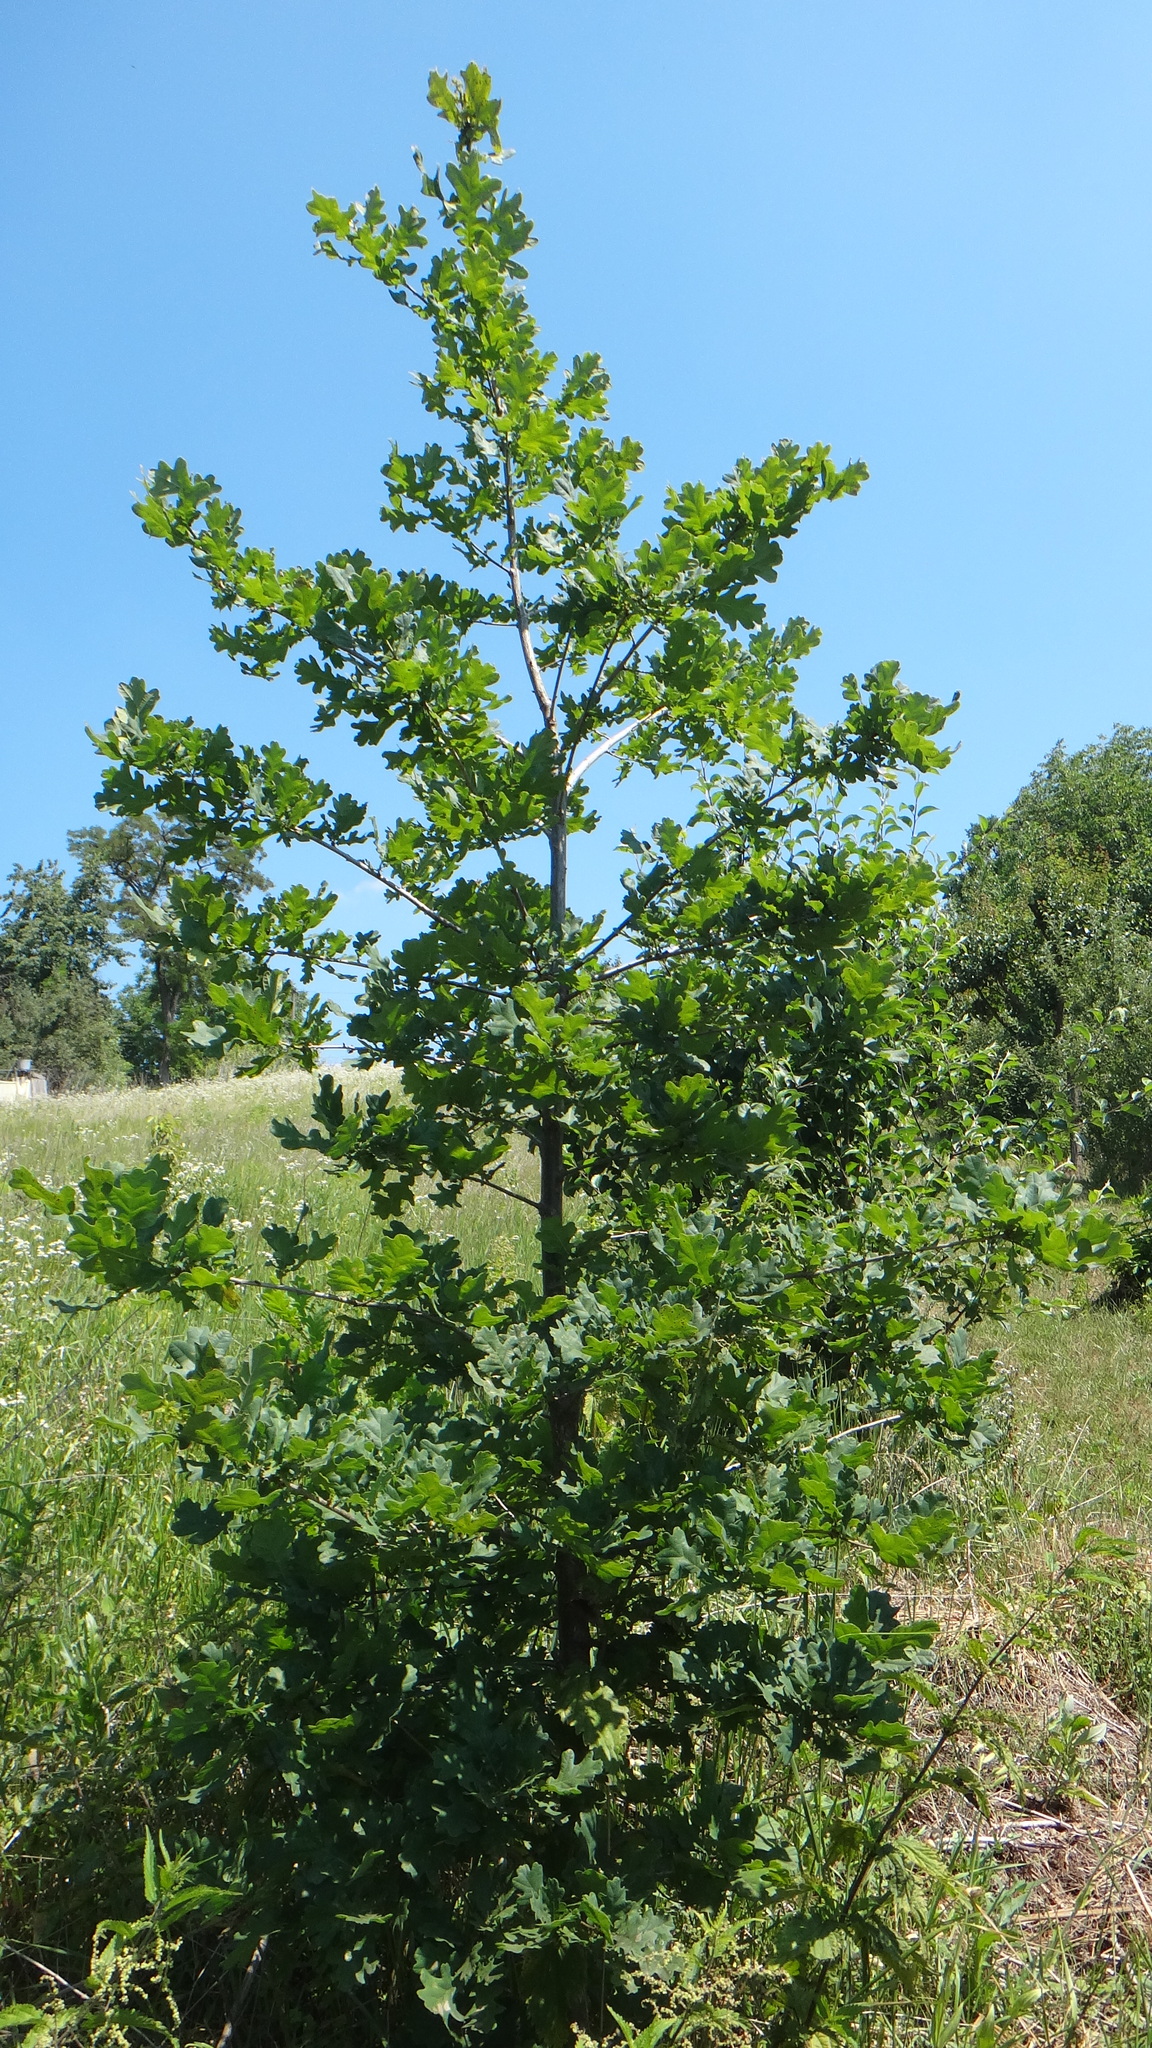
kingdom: Plantae
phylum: Tracheophyta
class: Magnoliopsida
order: Fagales
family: Fagaceae
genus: Quercus
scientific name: Quercus robur
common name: Pedunculate oak
